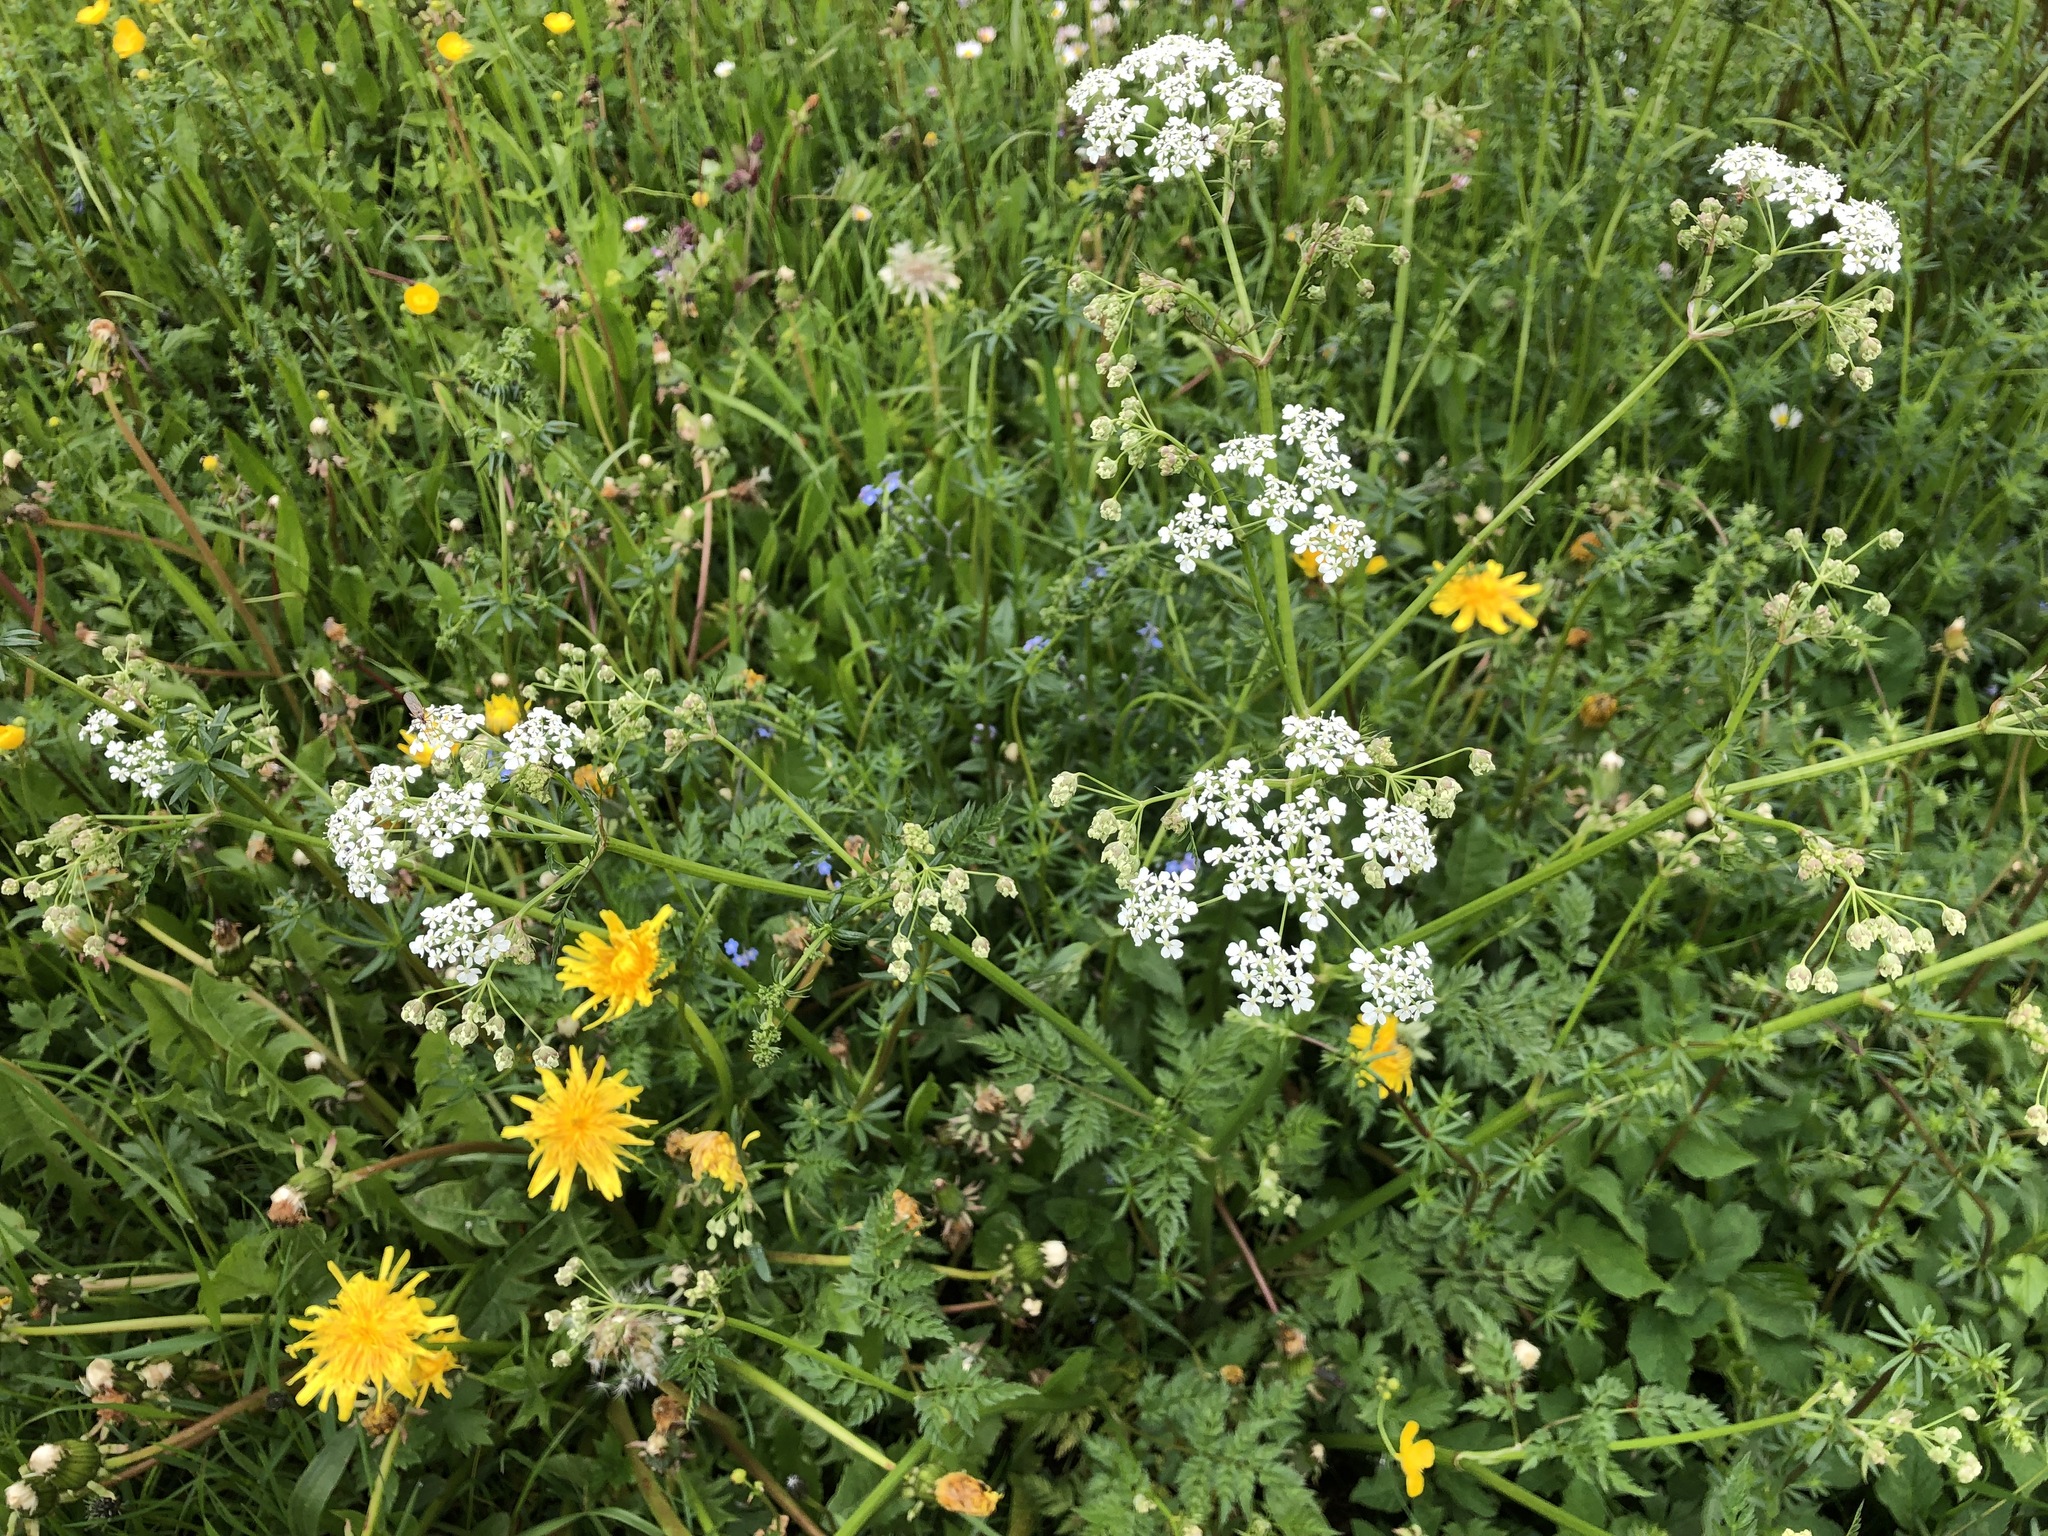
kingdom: Plantae
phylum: Tracheophyta
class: Magnoliopsida
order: Apiales
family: Apiaceae
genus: Anthriscus
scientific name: Anthriscus sylvestris
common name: Cow parsley
